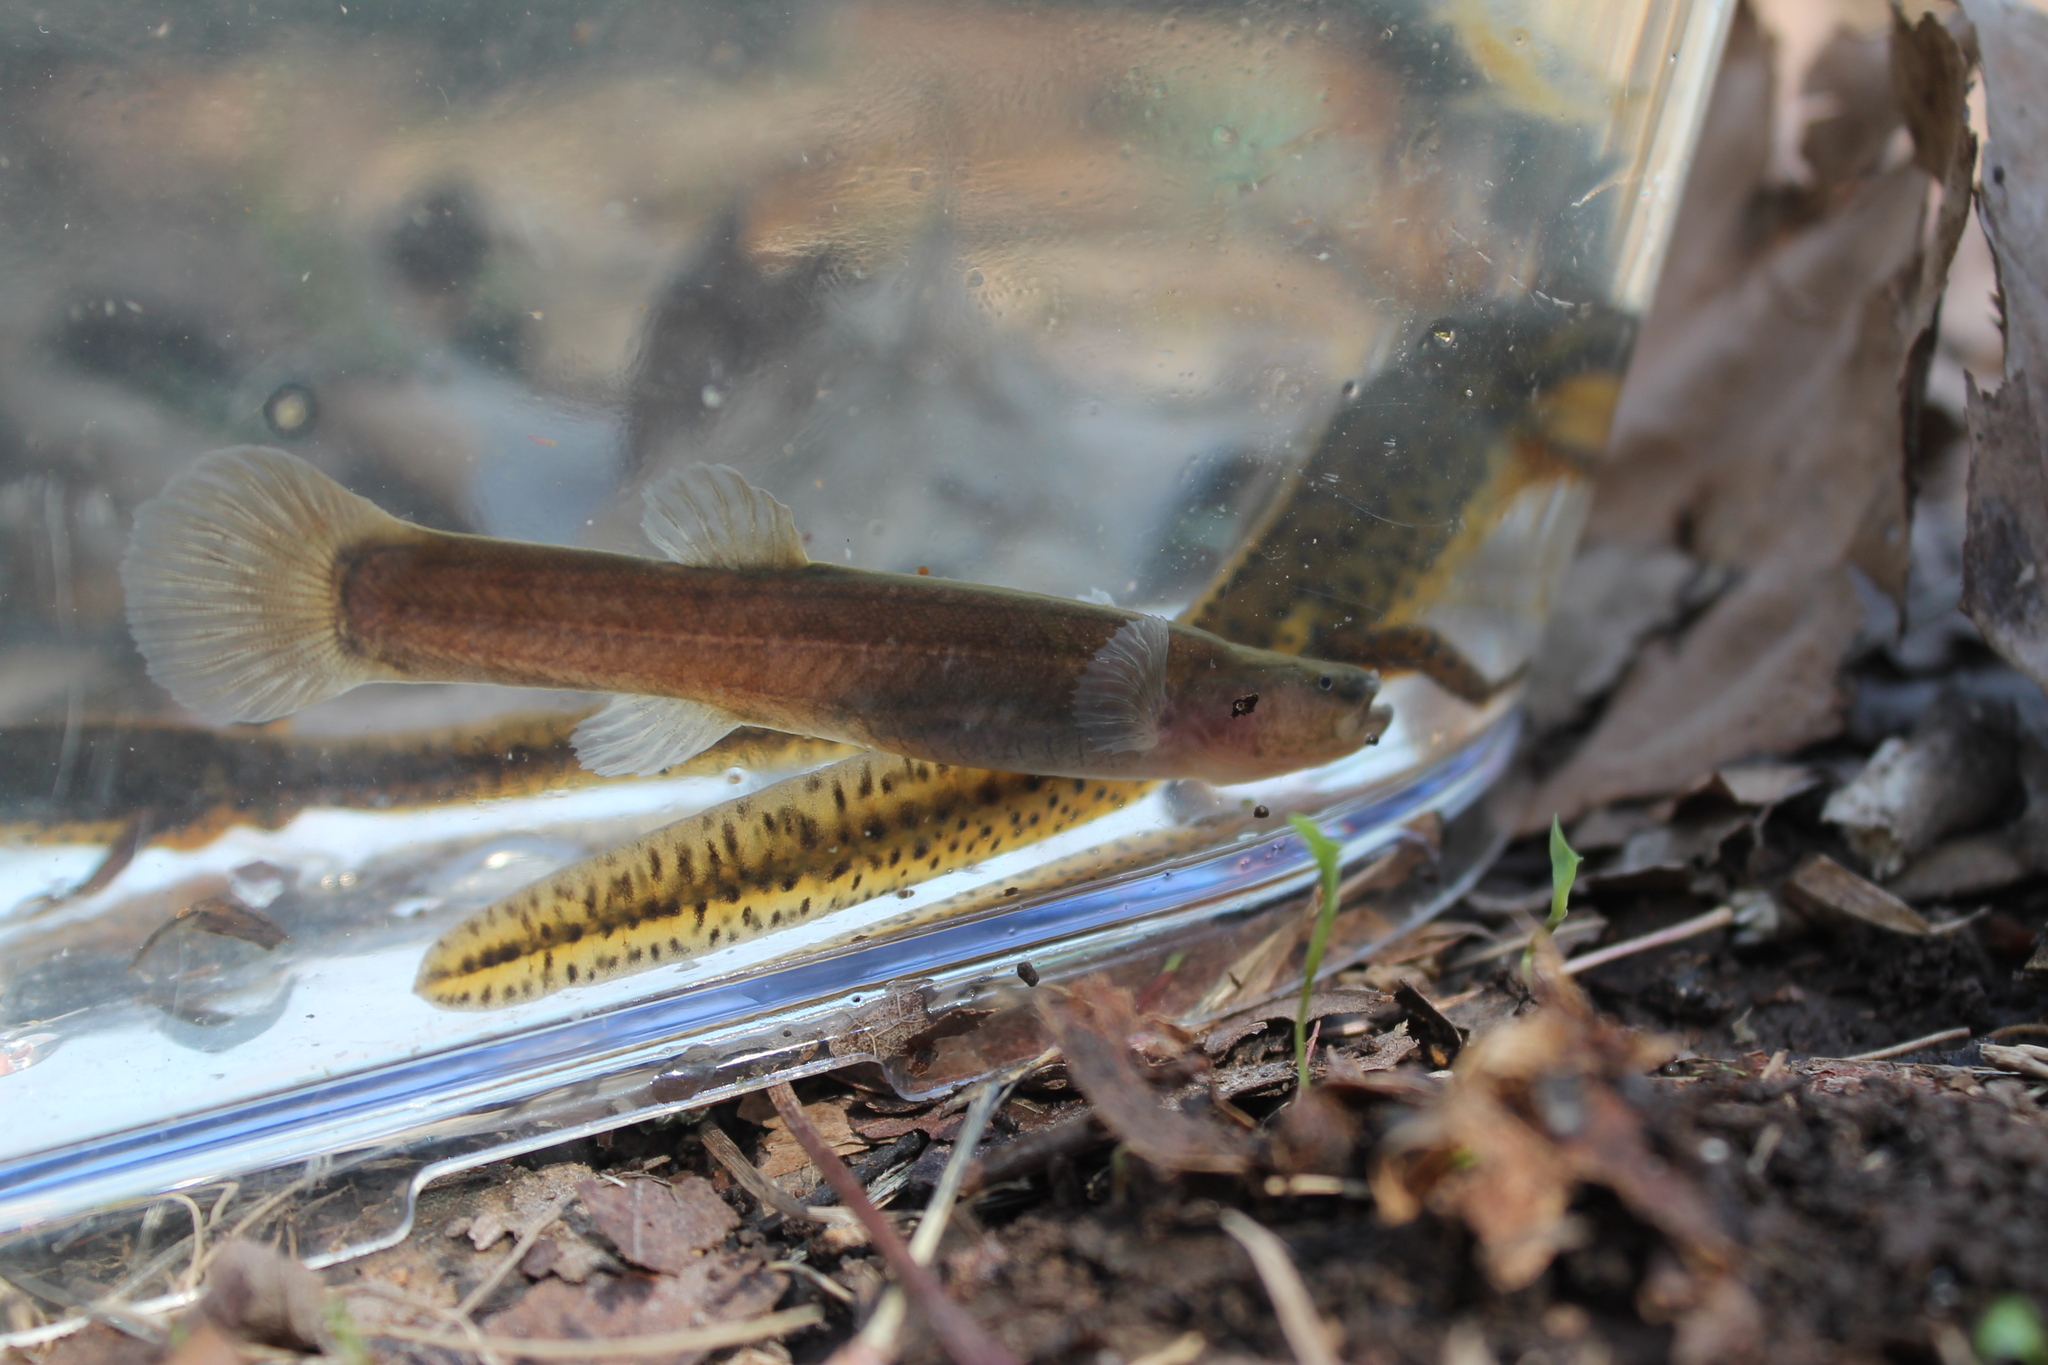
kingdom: Animalia
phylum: Chordata
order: Percopsiformes
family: Amblyopsidae
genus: Forbesichthys
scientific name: Forbesichthys
